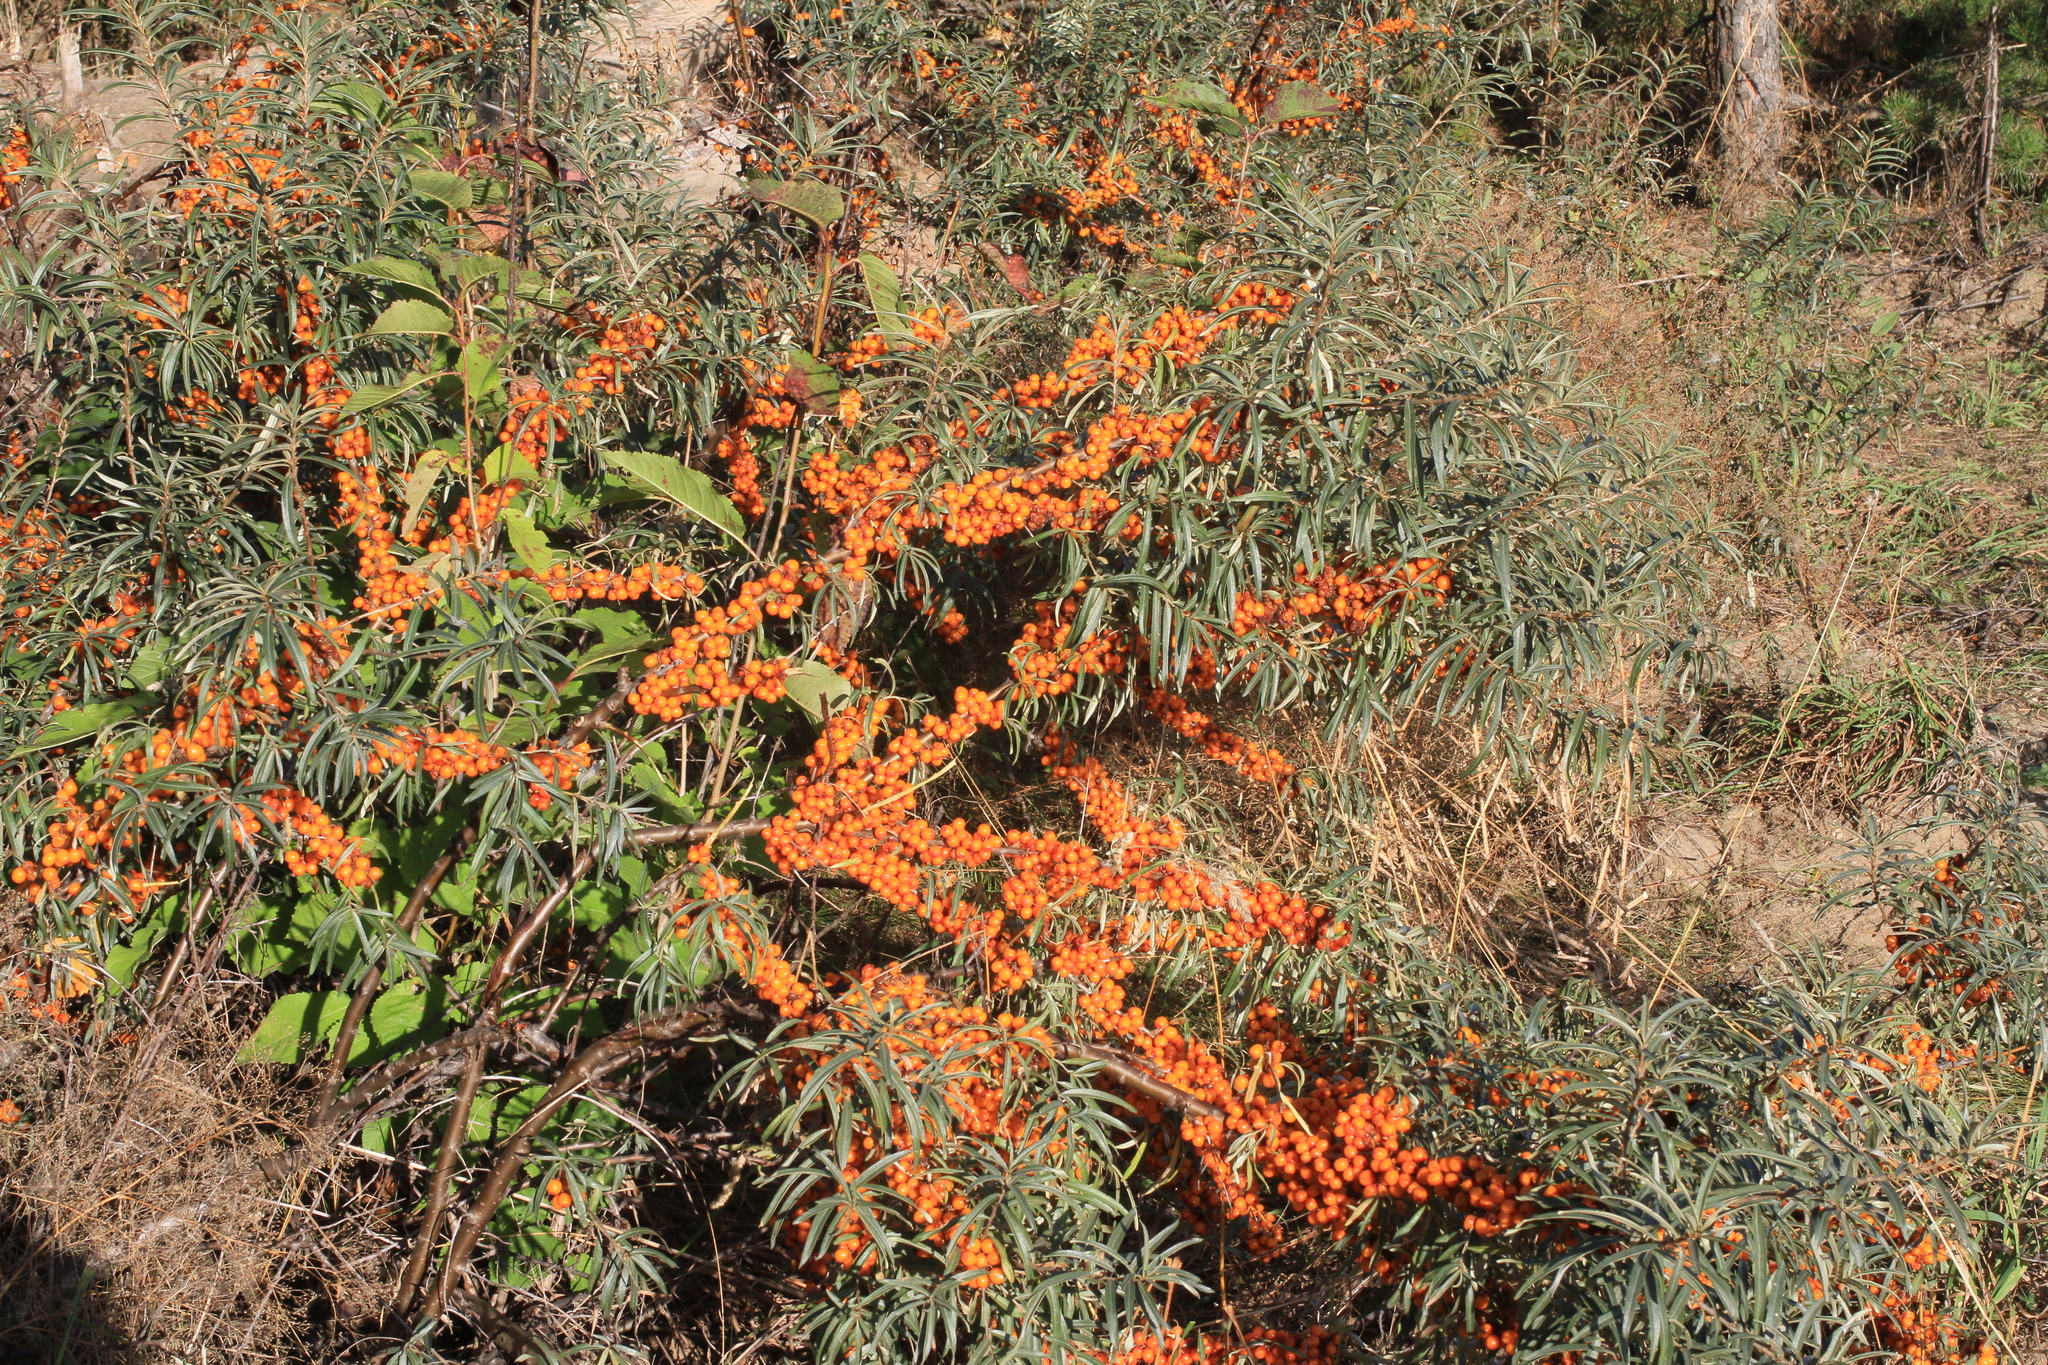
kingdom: Plantae
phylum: Tracheophyta
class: Magnoliopsida
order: Rosales
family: Elaeagnaceae
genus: Hippophae
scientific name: Hippophae rhamnoides
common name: Sea-buckthorn
